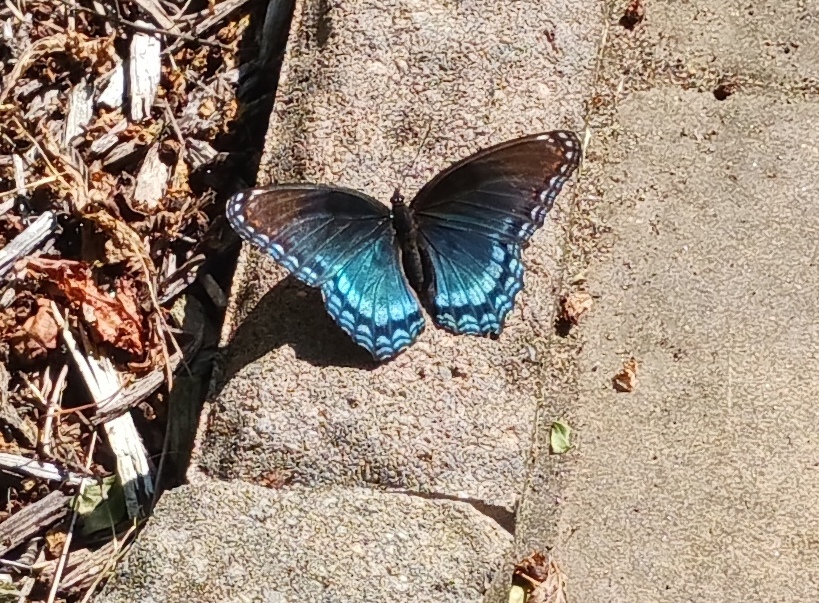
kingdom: Animalia
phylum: Arthropoda
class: Insecta
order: Lepidoptera
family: Nymphalidae
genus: Limenitis
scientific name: Limenitis astyanax
